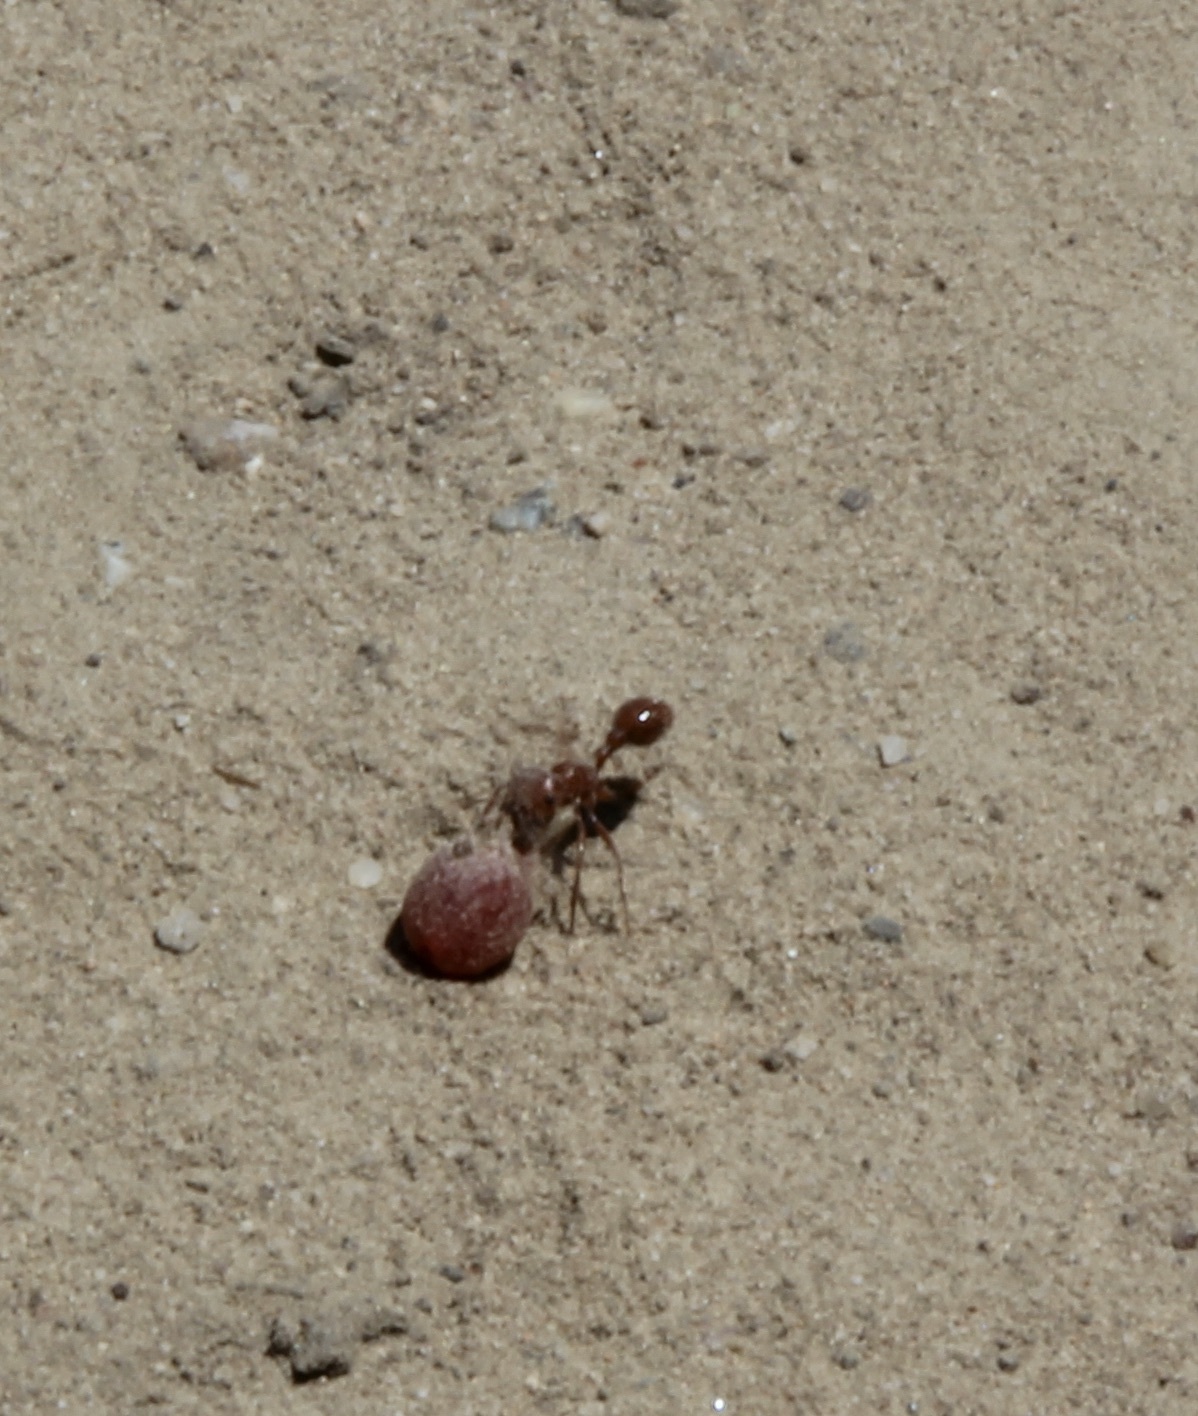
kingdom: Animalia
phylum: Arthropoda
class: Insecta
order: Hymenoptera
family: Formicidae
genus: Pogonomyrmex
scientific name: Pogonomyrmex californicus
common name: California harvester ant
